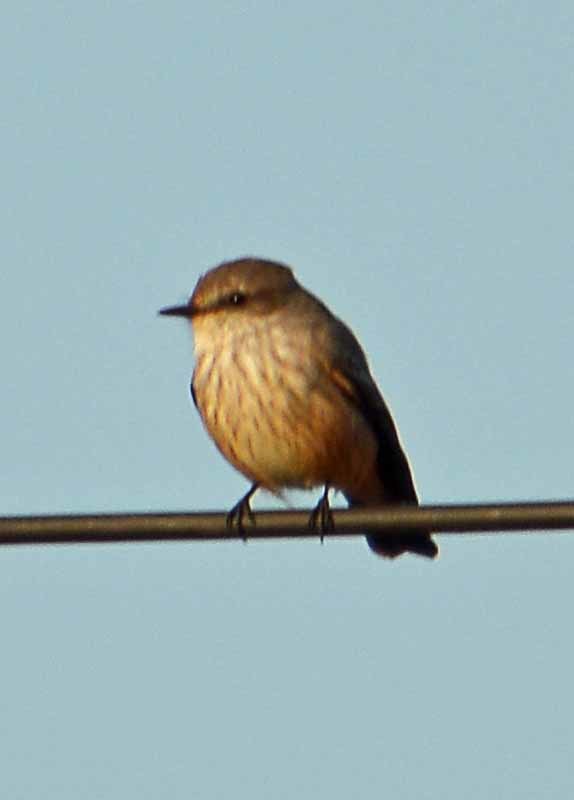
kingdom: Animalia
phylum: Chordata
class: Aves
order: Passeriformes
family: Tyrannidae
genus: Pyrocephalus
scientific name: Pyrocephalus rubinus
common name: Vermilion flycatcher
